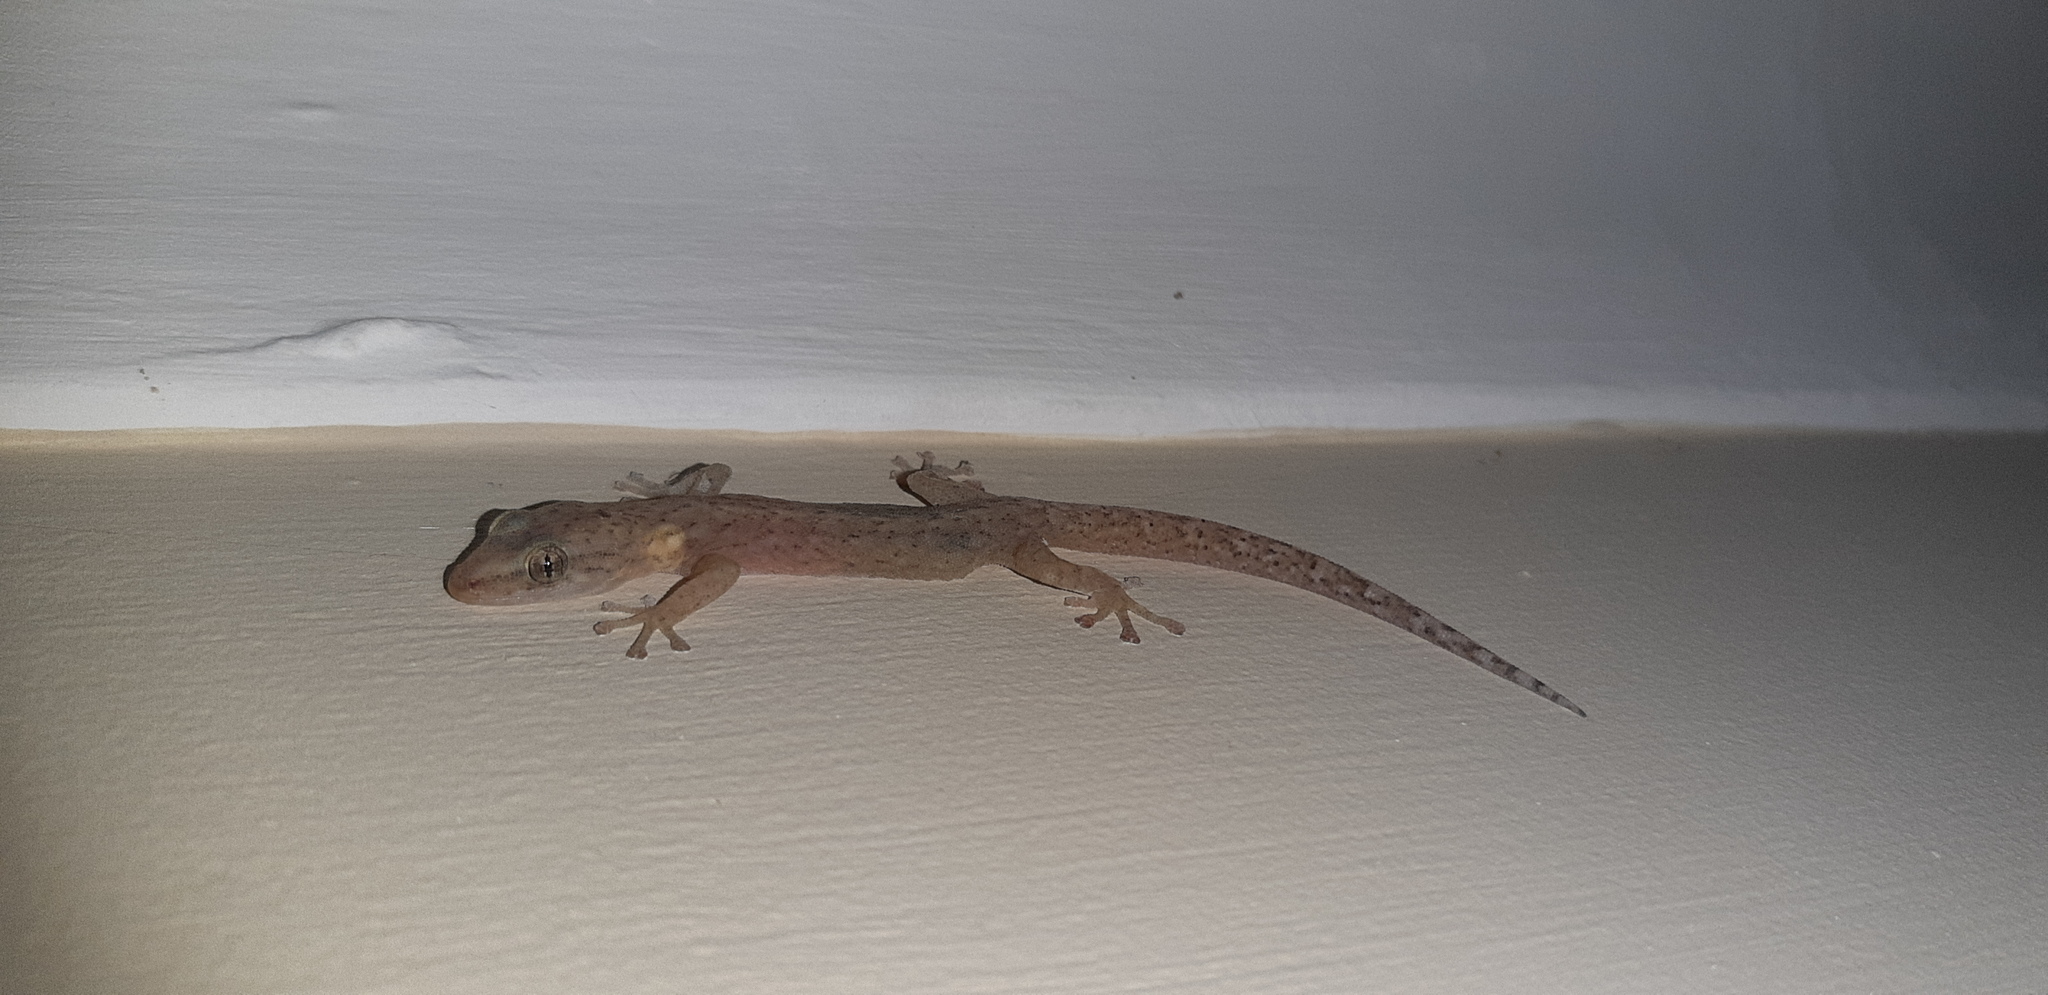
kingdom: Animalia
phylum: Chordata
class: Squamata
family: Gekkonidae
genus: Afrogecko
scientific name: Afrogecko porphyreus
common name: Marbled leaf-toed gecko
